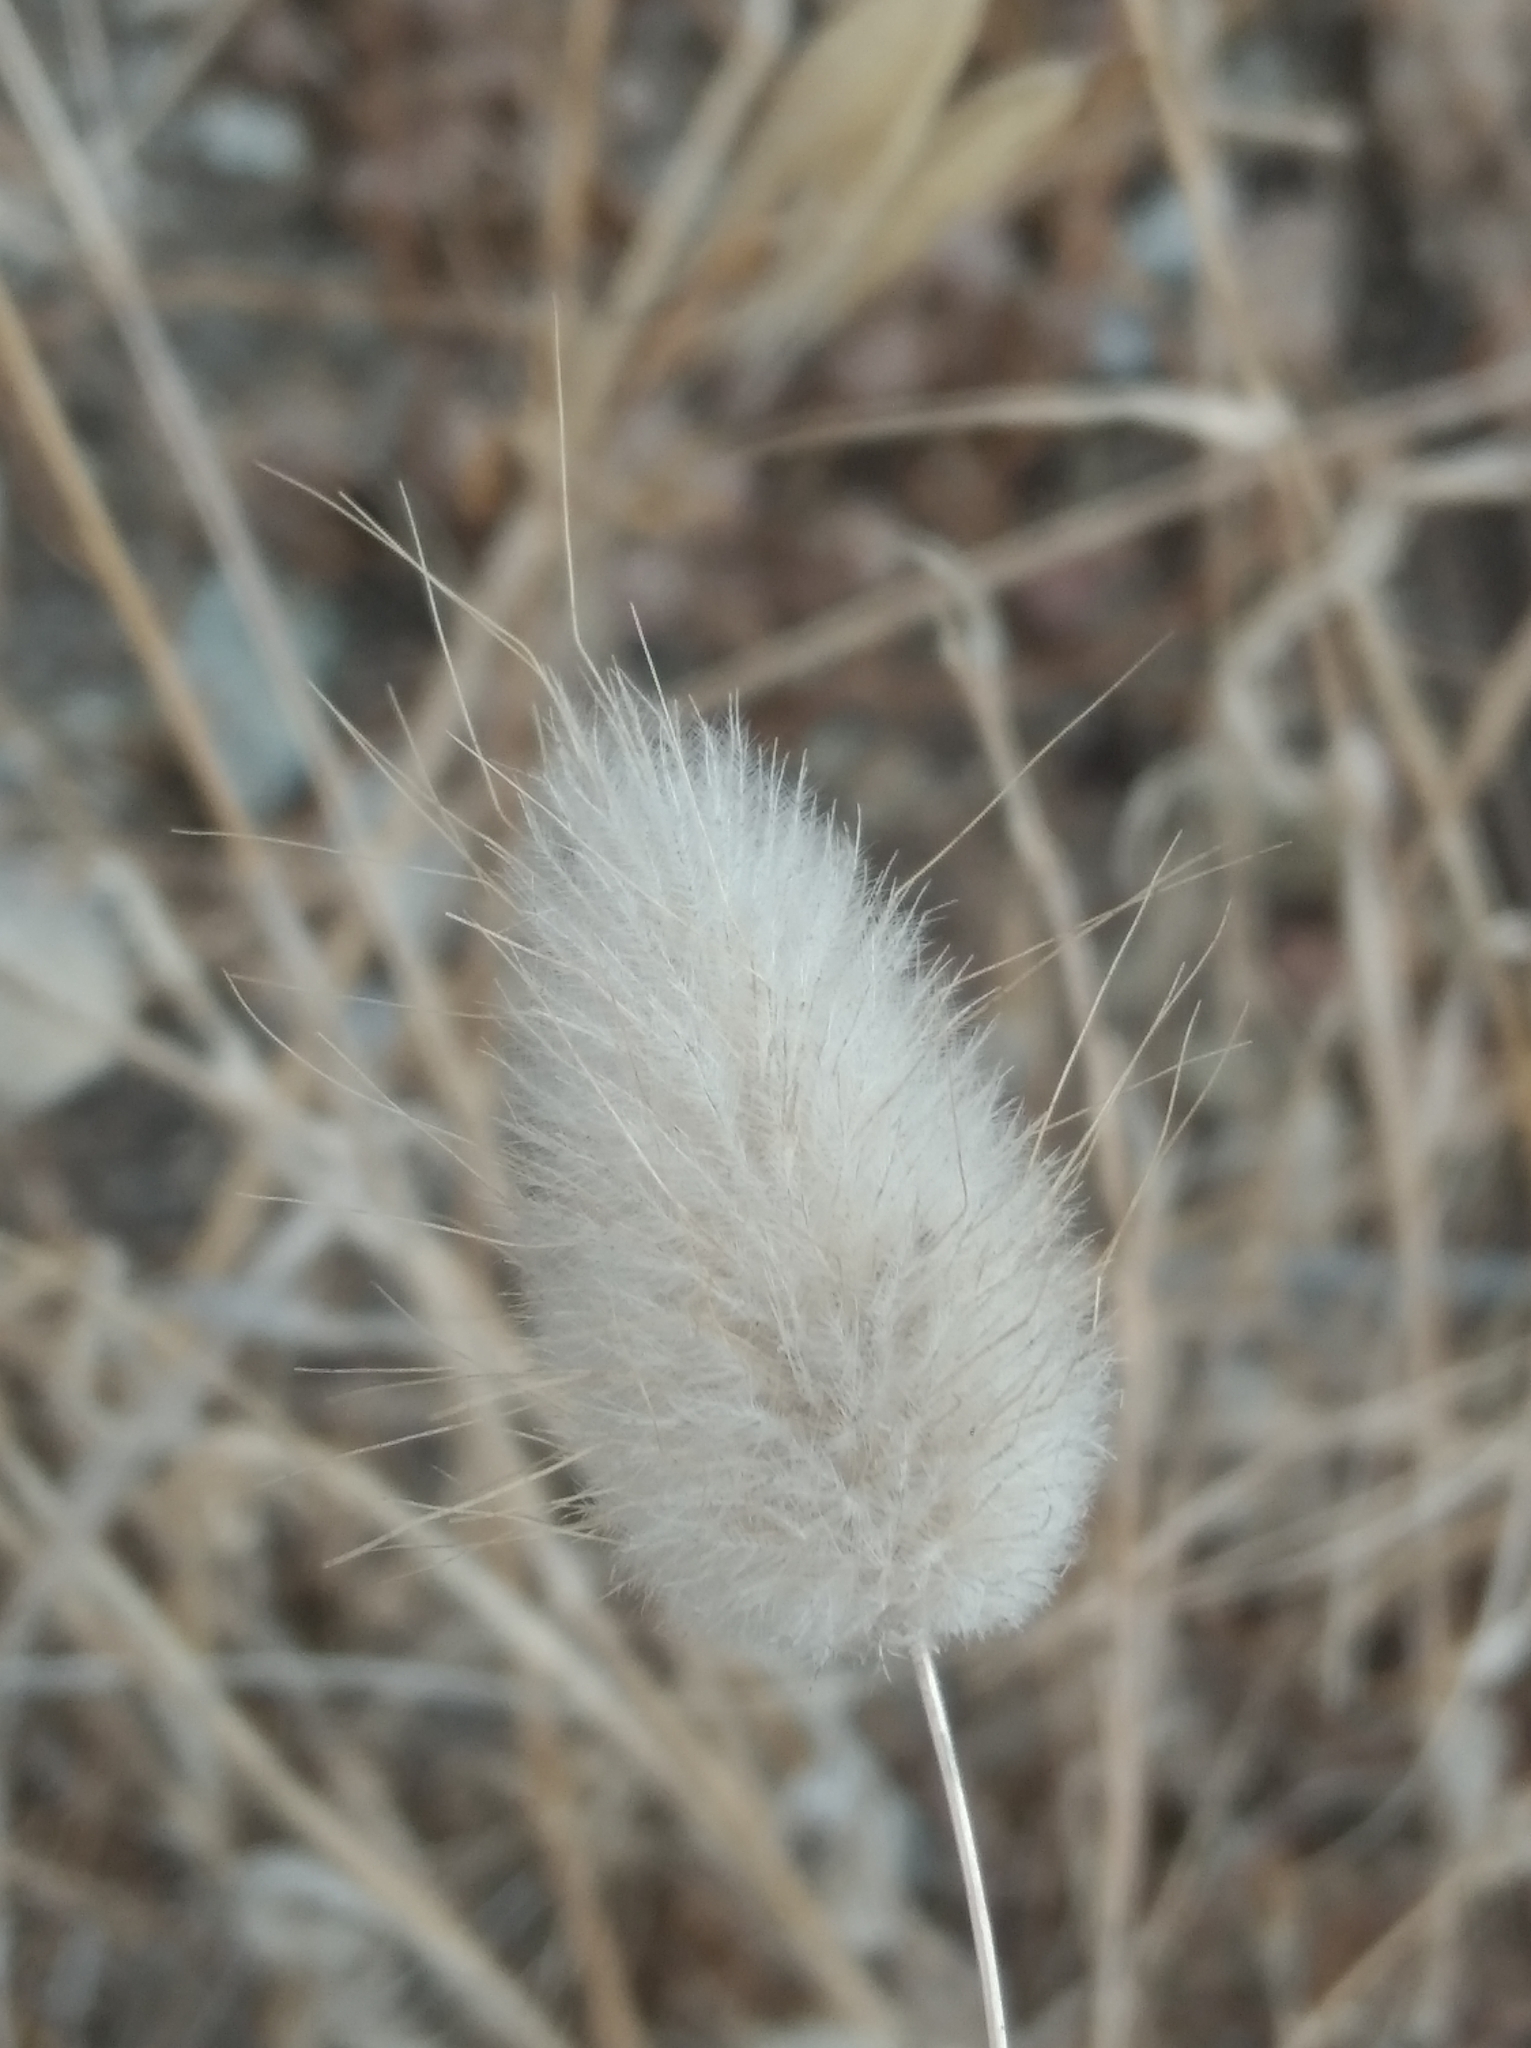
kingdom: Plantae
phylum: Tracheophyta
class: Liliopsida
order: Poales
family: Poaceae
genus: Lagurus
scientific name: Lagurus ovatus
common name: Hare's-tail
